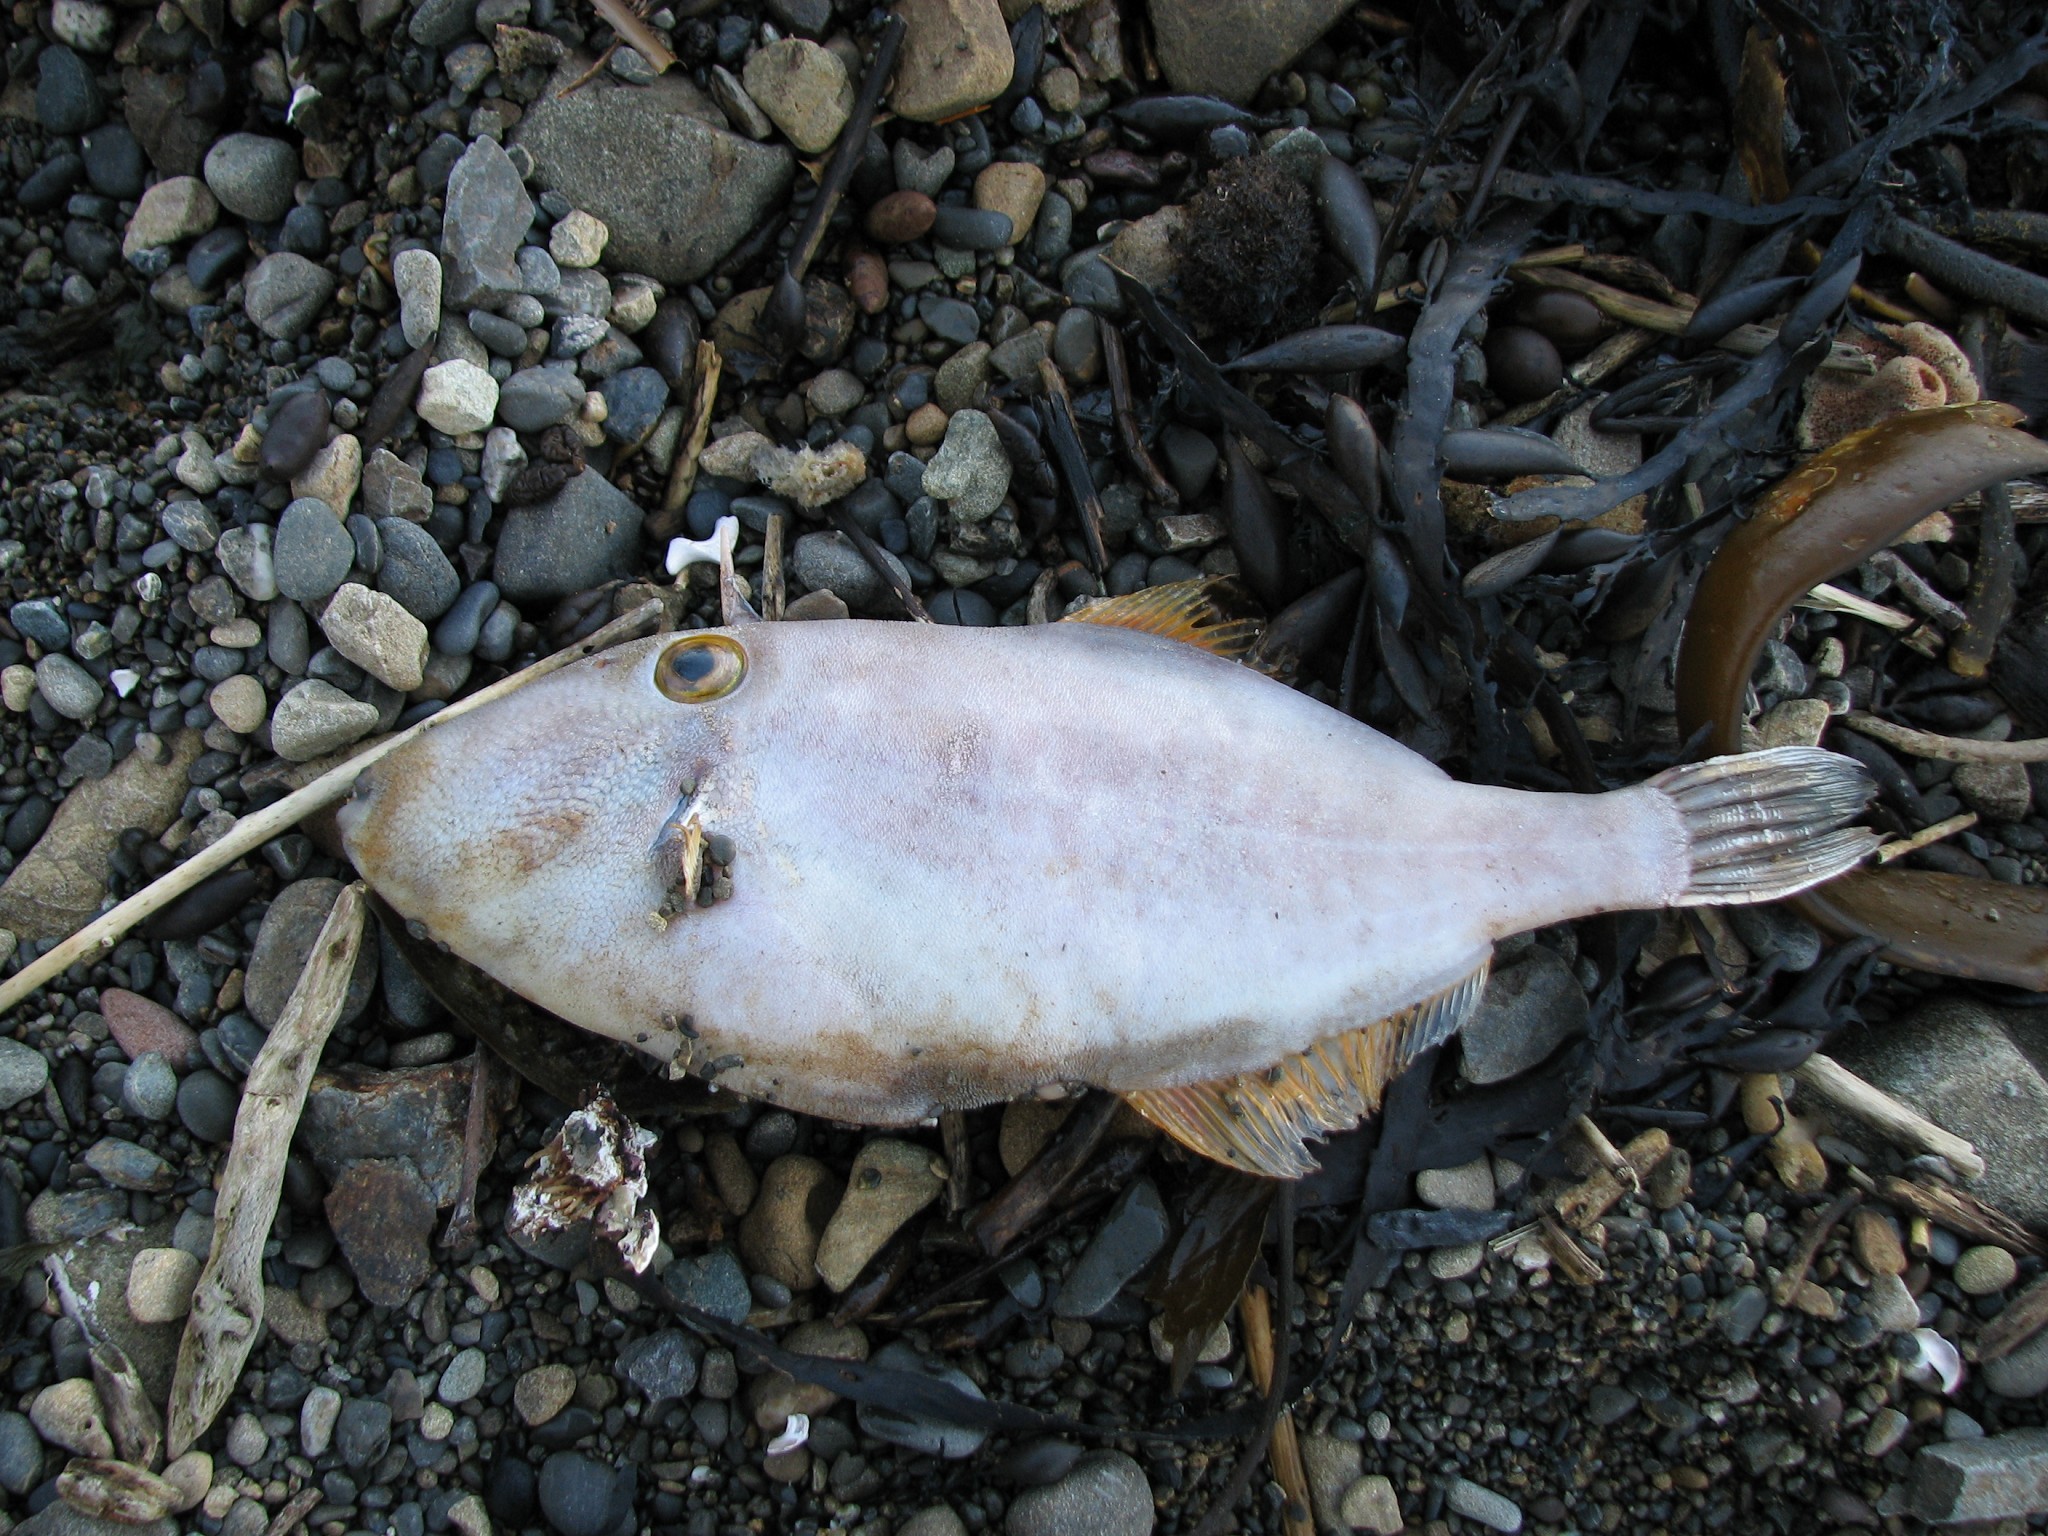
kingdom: Animalia
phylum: Chordata
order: Tetraodontiformes
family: Monacanthidae
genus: Meuschenia
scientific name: Meuschenia scaber
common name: Cosmopolitan leatherjacket
